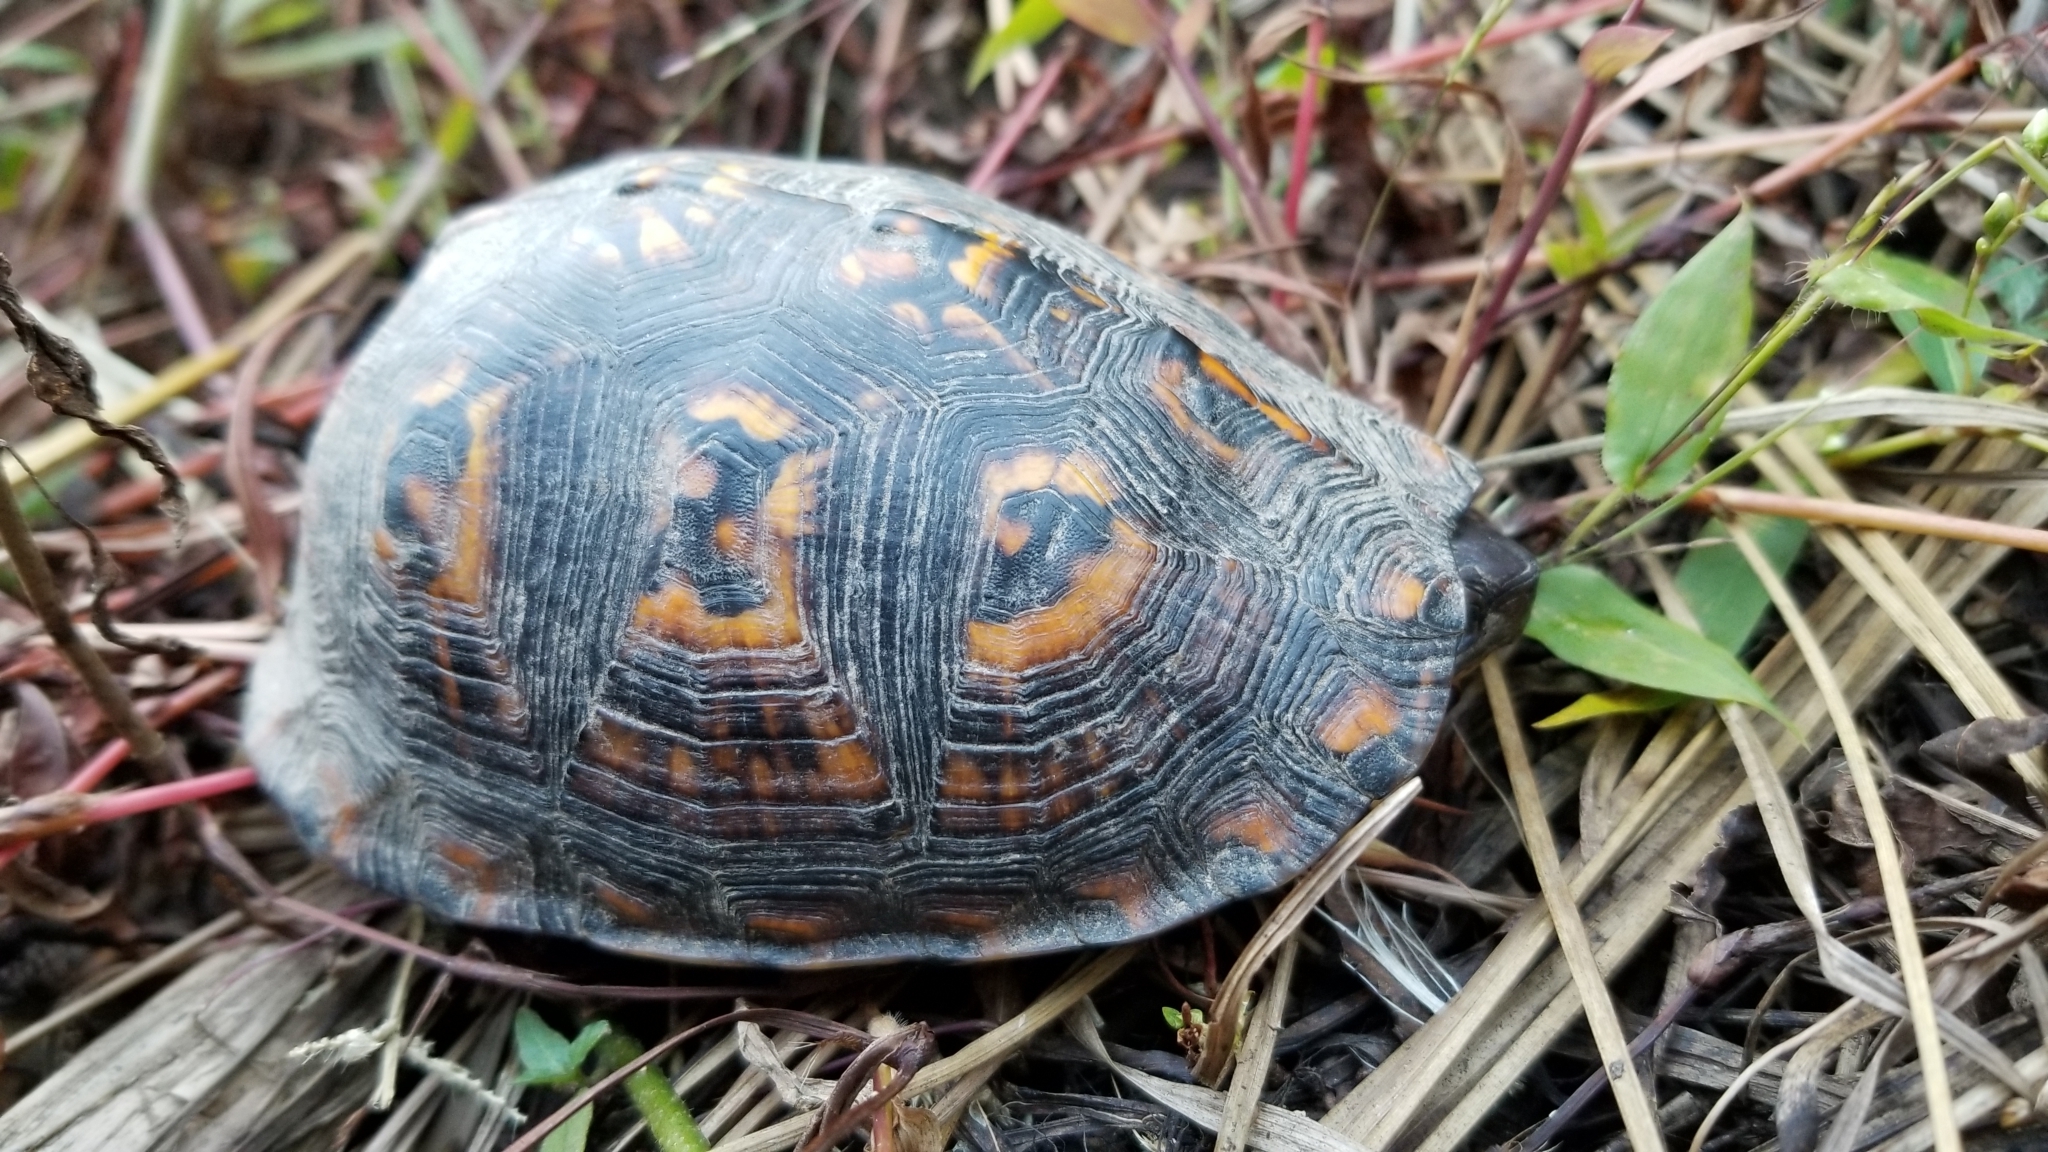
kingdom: Animalia
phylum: Chordata
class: Testudines
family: Emydidae
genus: Terrapene
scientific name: Terrapene carolina
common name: Common box turtle
